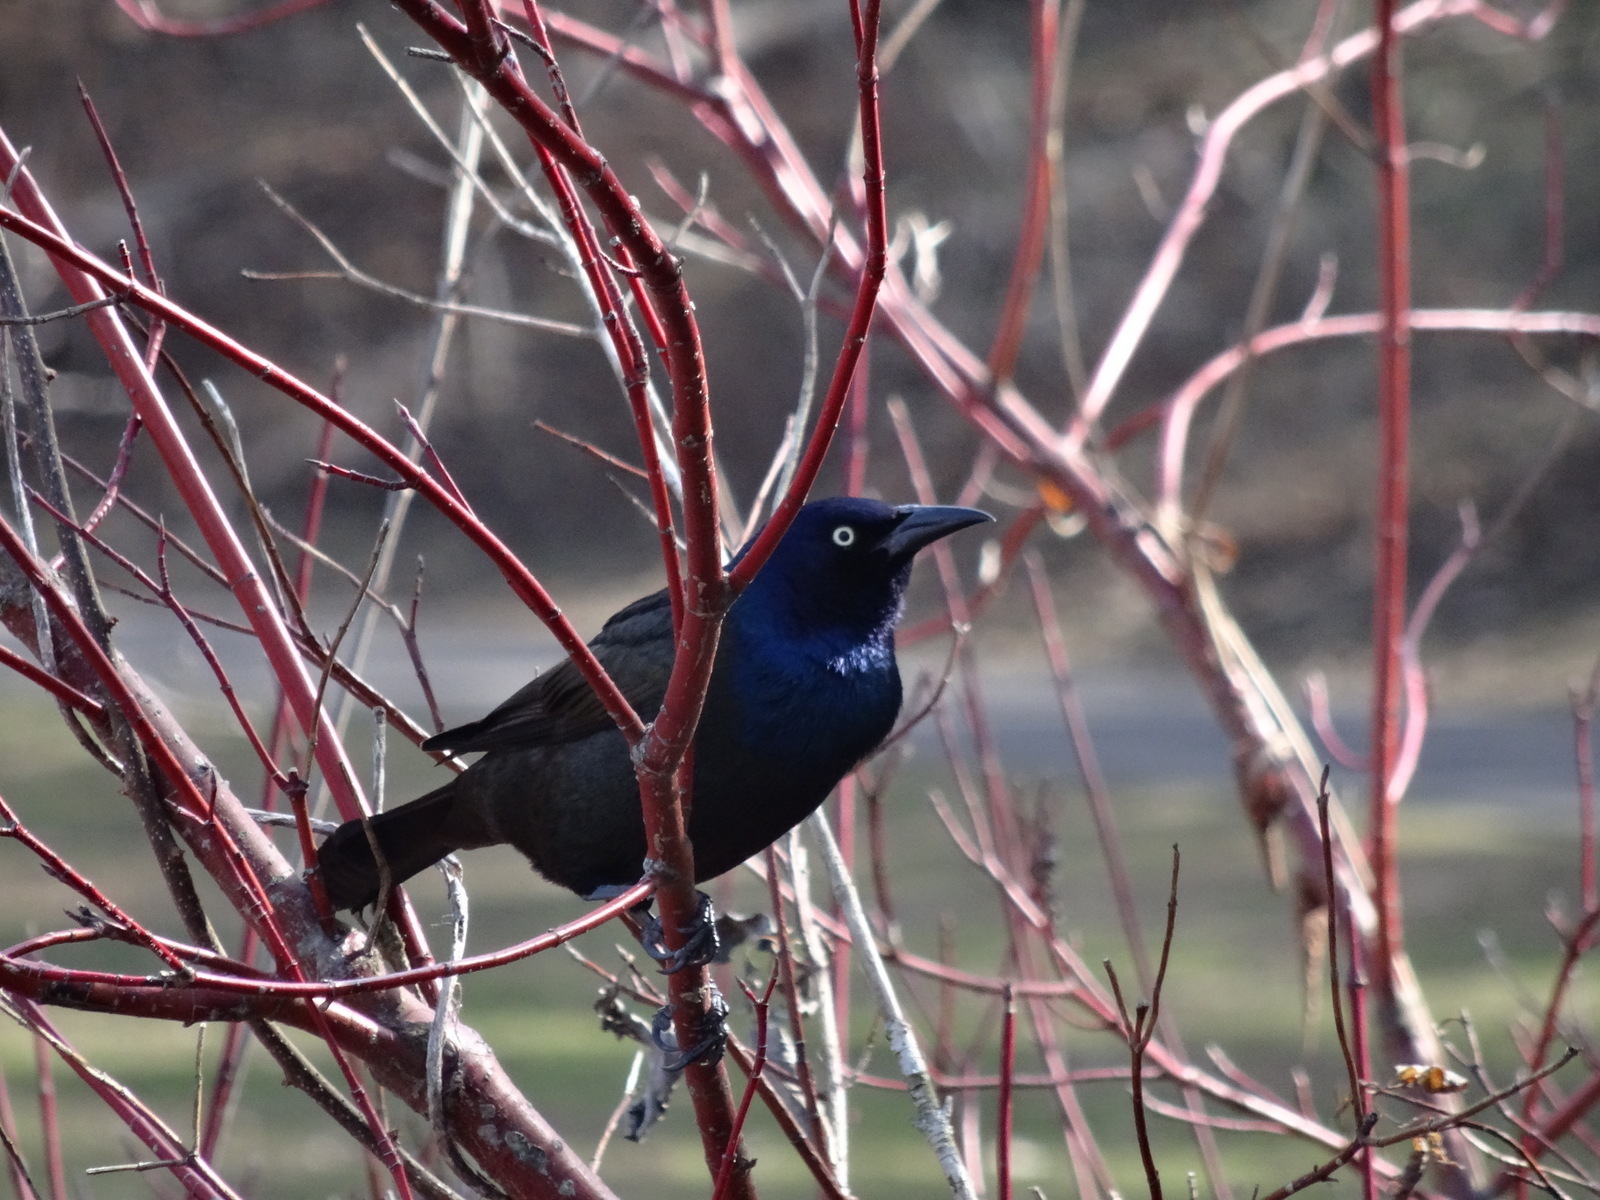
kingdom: Animalia
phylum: Chordata
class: Aves
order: Passeriformes
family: Icteridae
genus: Quiscalus
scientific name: Quiscalus quiscula
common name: Common grackle
